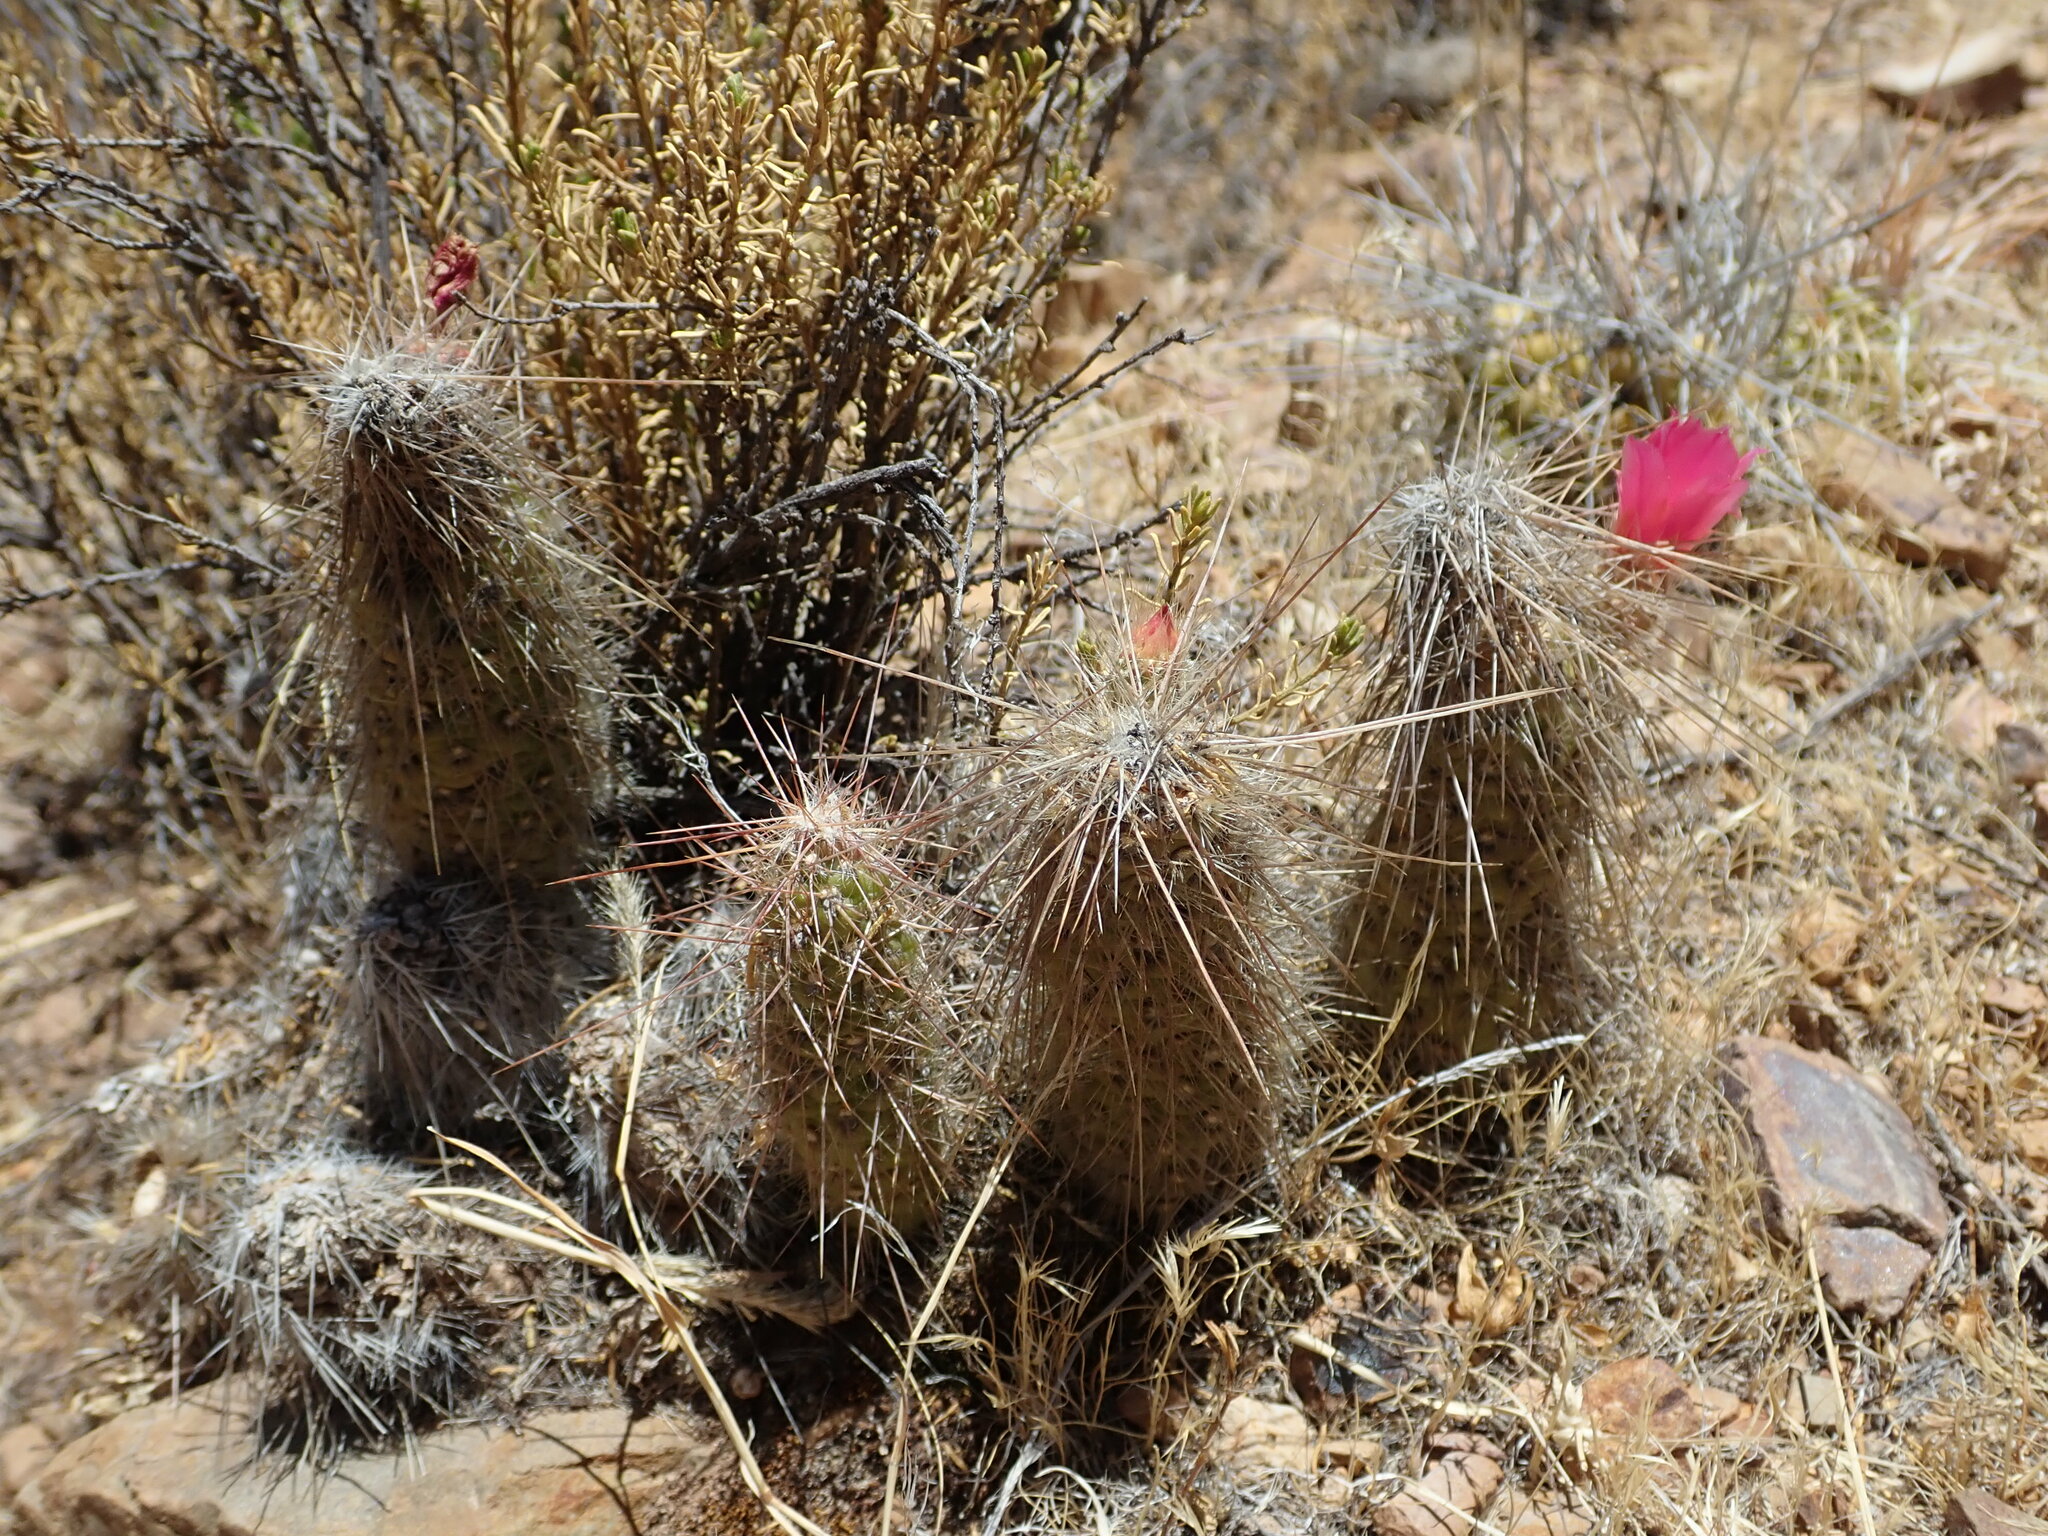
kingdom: Plantae
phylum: Tracheophyta
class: Magnoliopsida
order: Caryophyllales
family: Cactaceae
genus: Austrocylindropuntia
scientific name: Austrocylindropuntia shaferi
